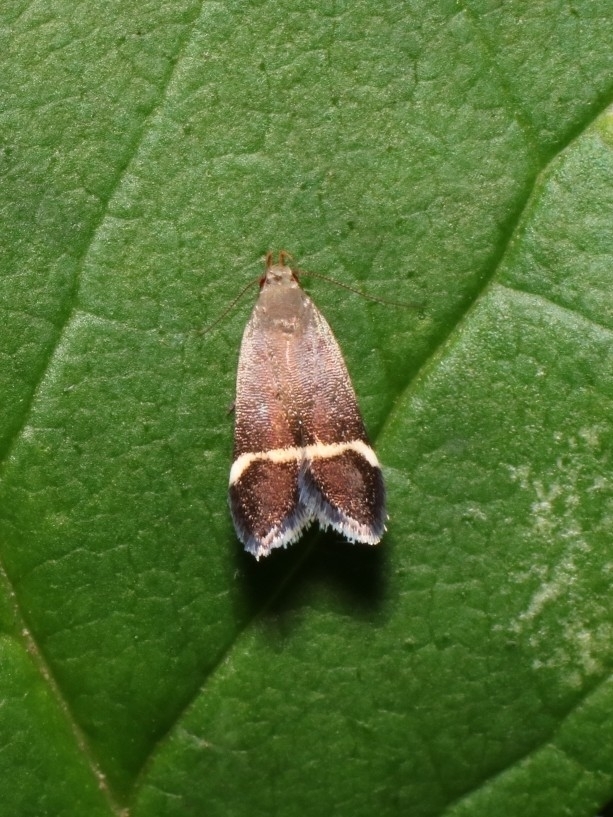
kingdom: Animalia
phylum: Arthropoda
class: Insecta
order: Lepidoptera
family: Gelechiidae
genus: Anacampsis
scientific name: Anacampsis agrimoniella
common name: Agrimony anacampsis moth
